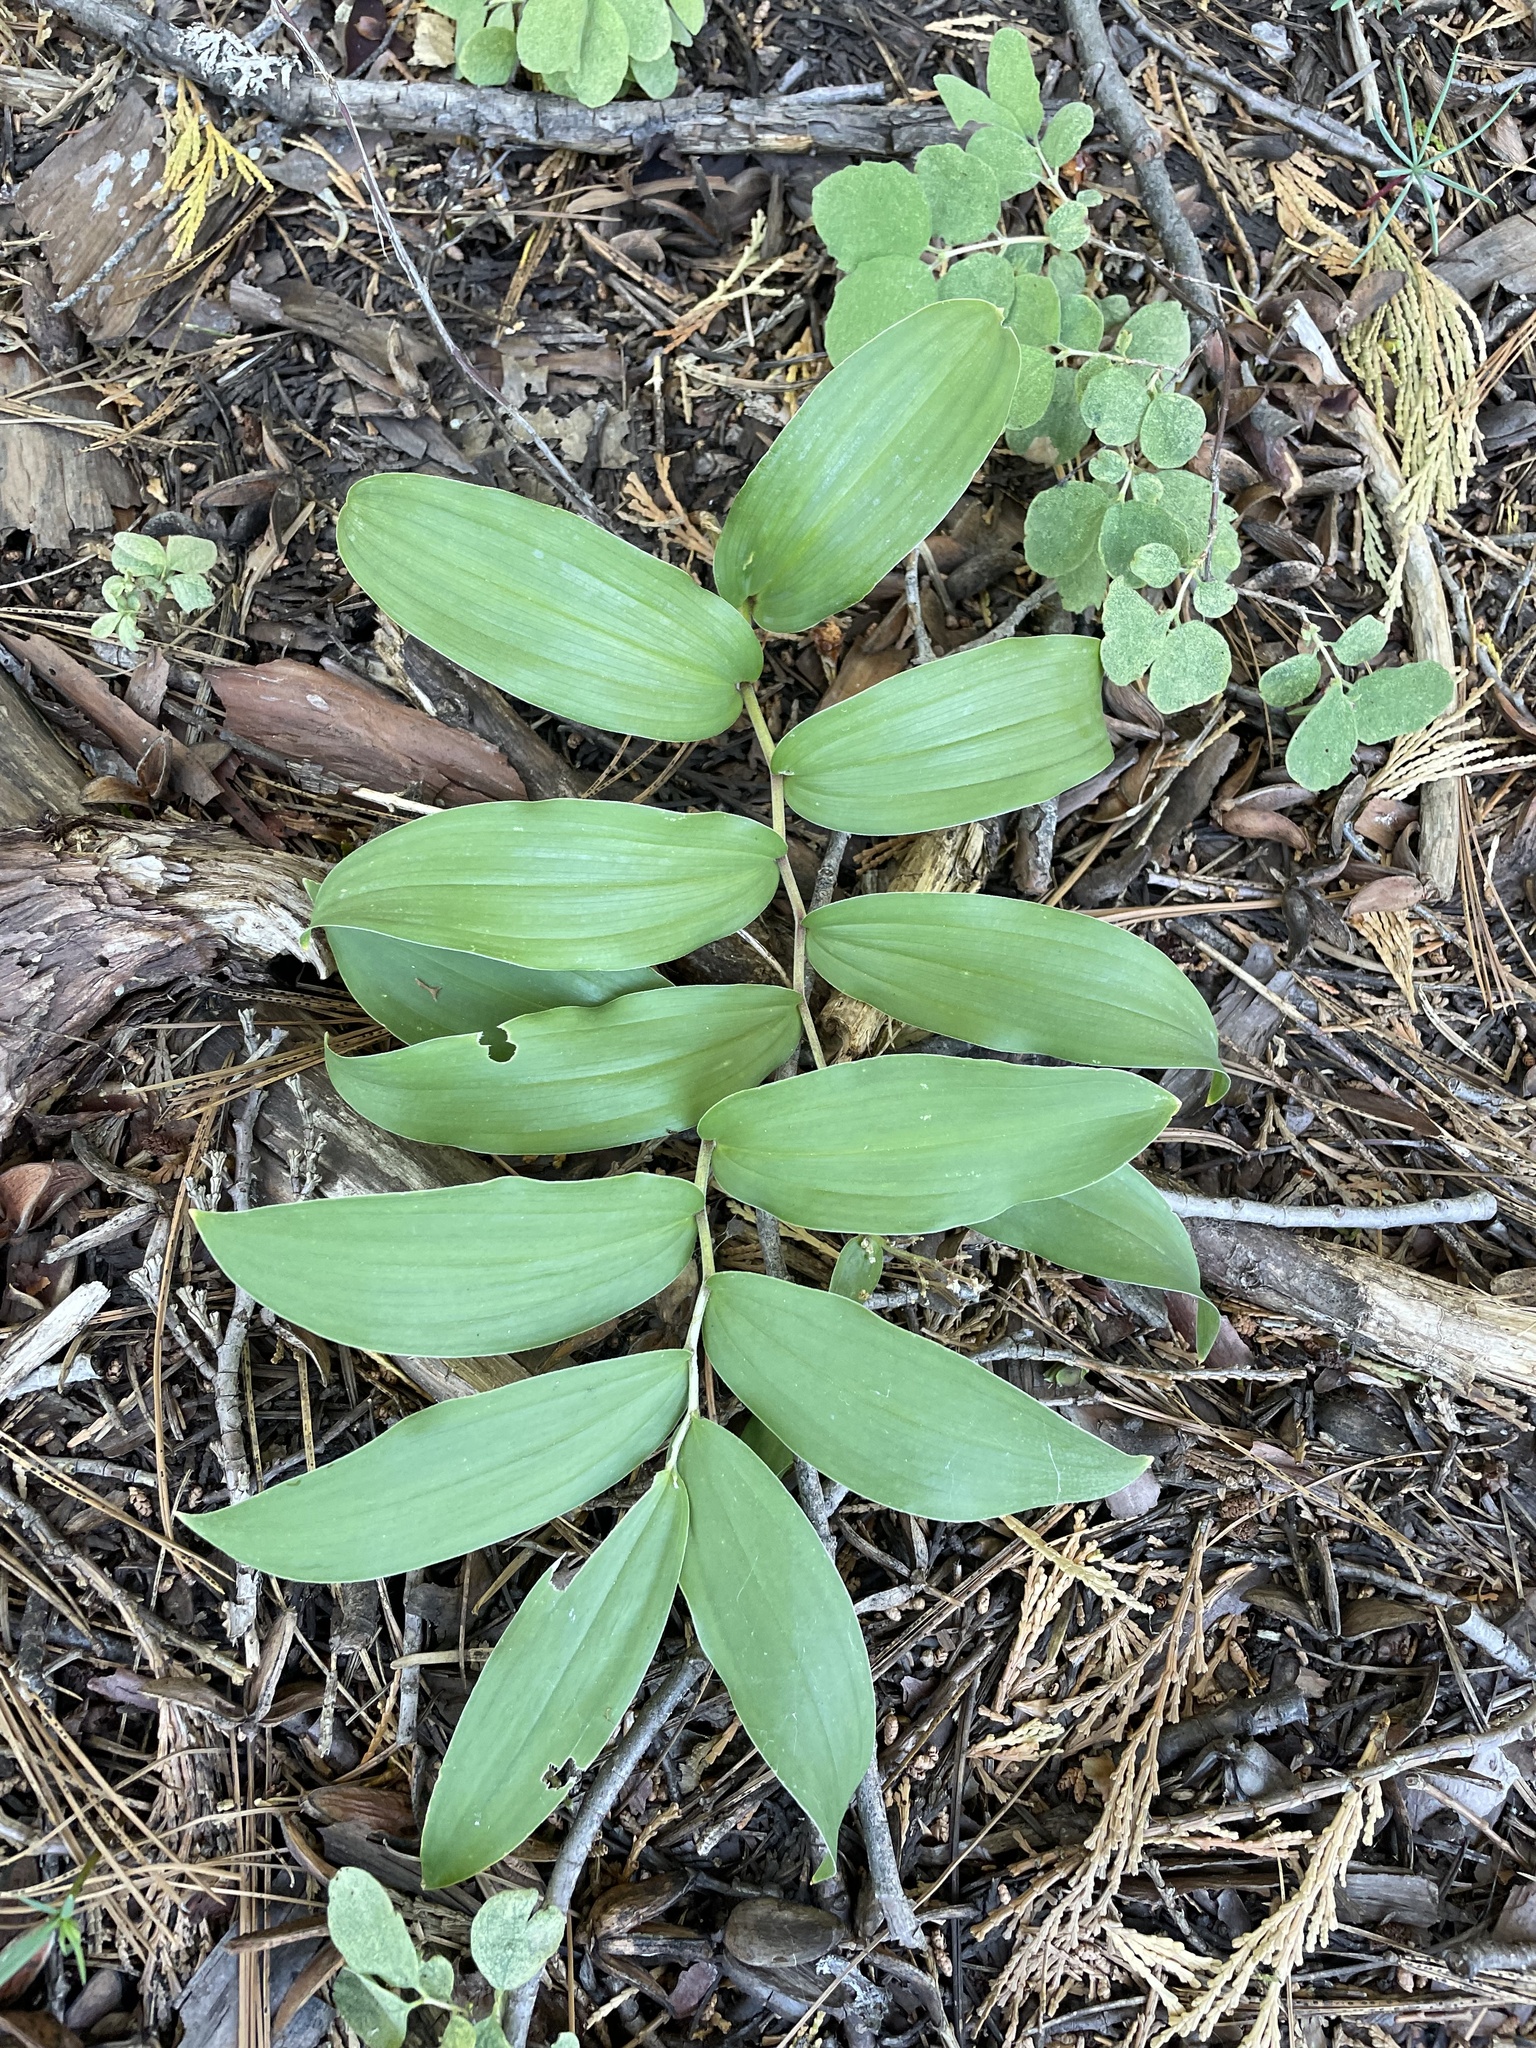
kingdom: Plantae
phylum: Tracheophyta
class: Liliopsida
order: Asparagales
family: Asparagaceae
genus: Maianthemum
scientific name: Maianthemum racemosum
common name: False spikenard
